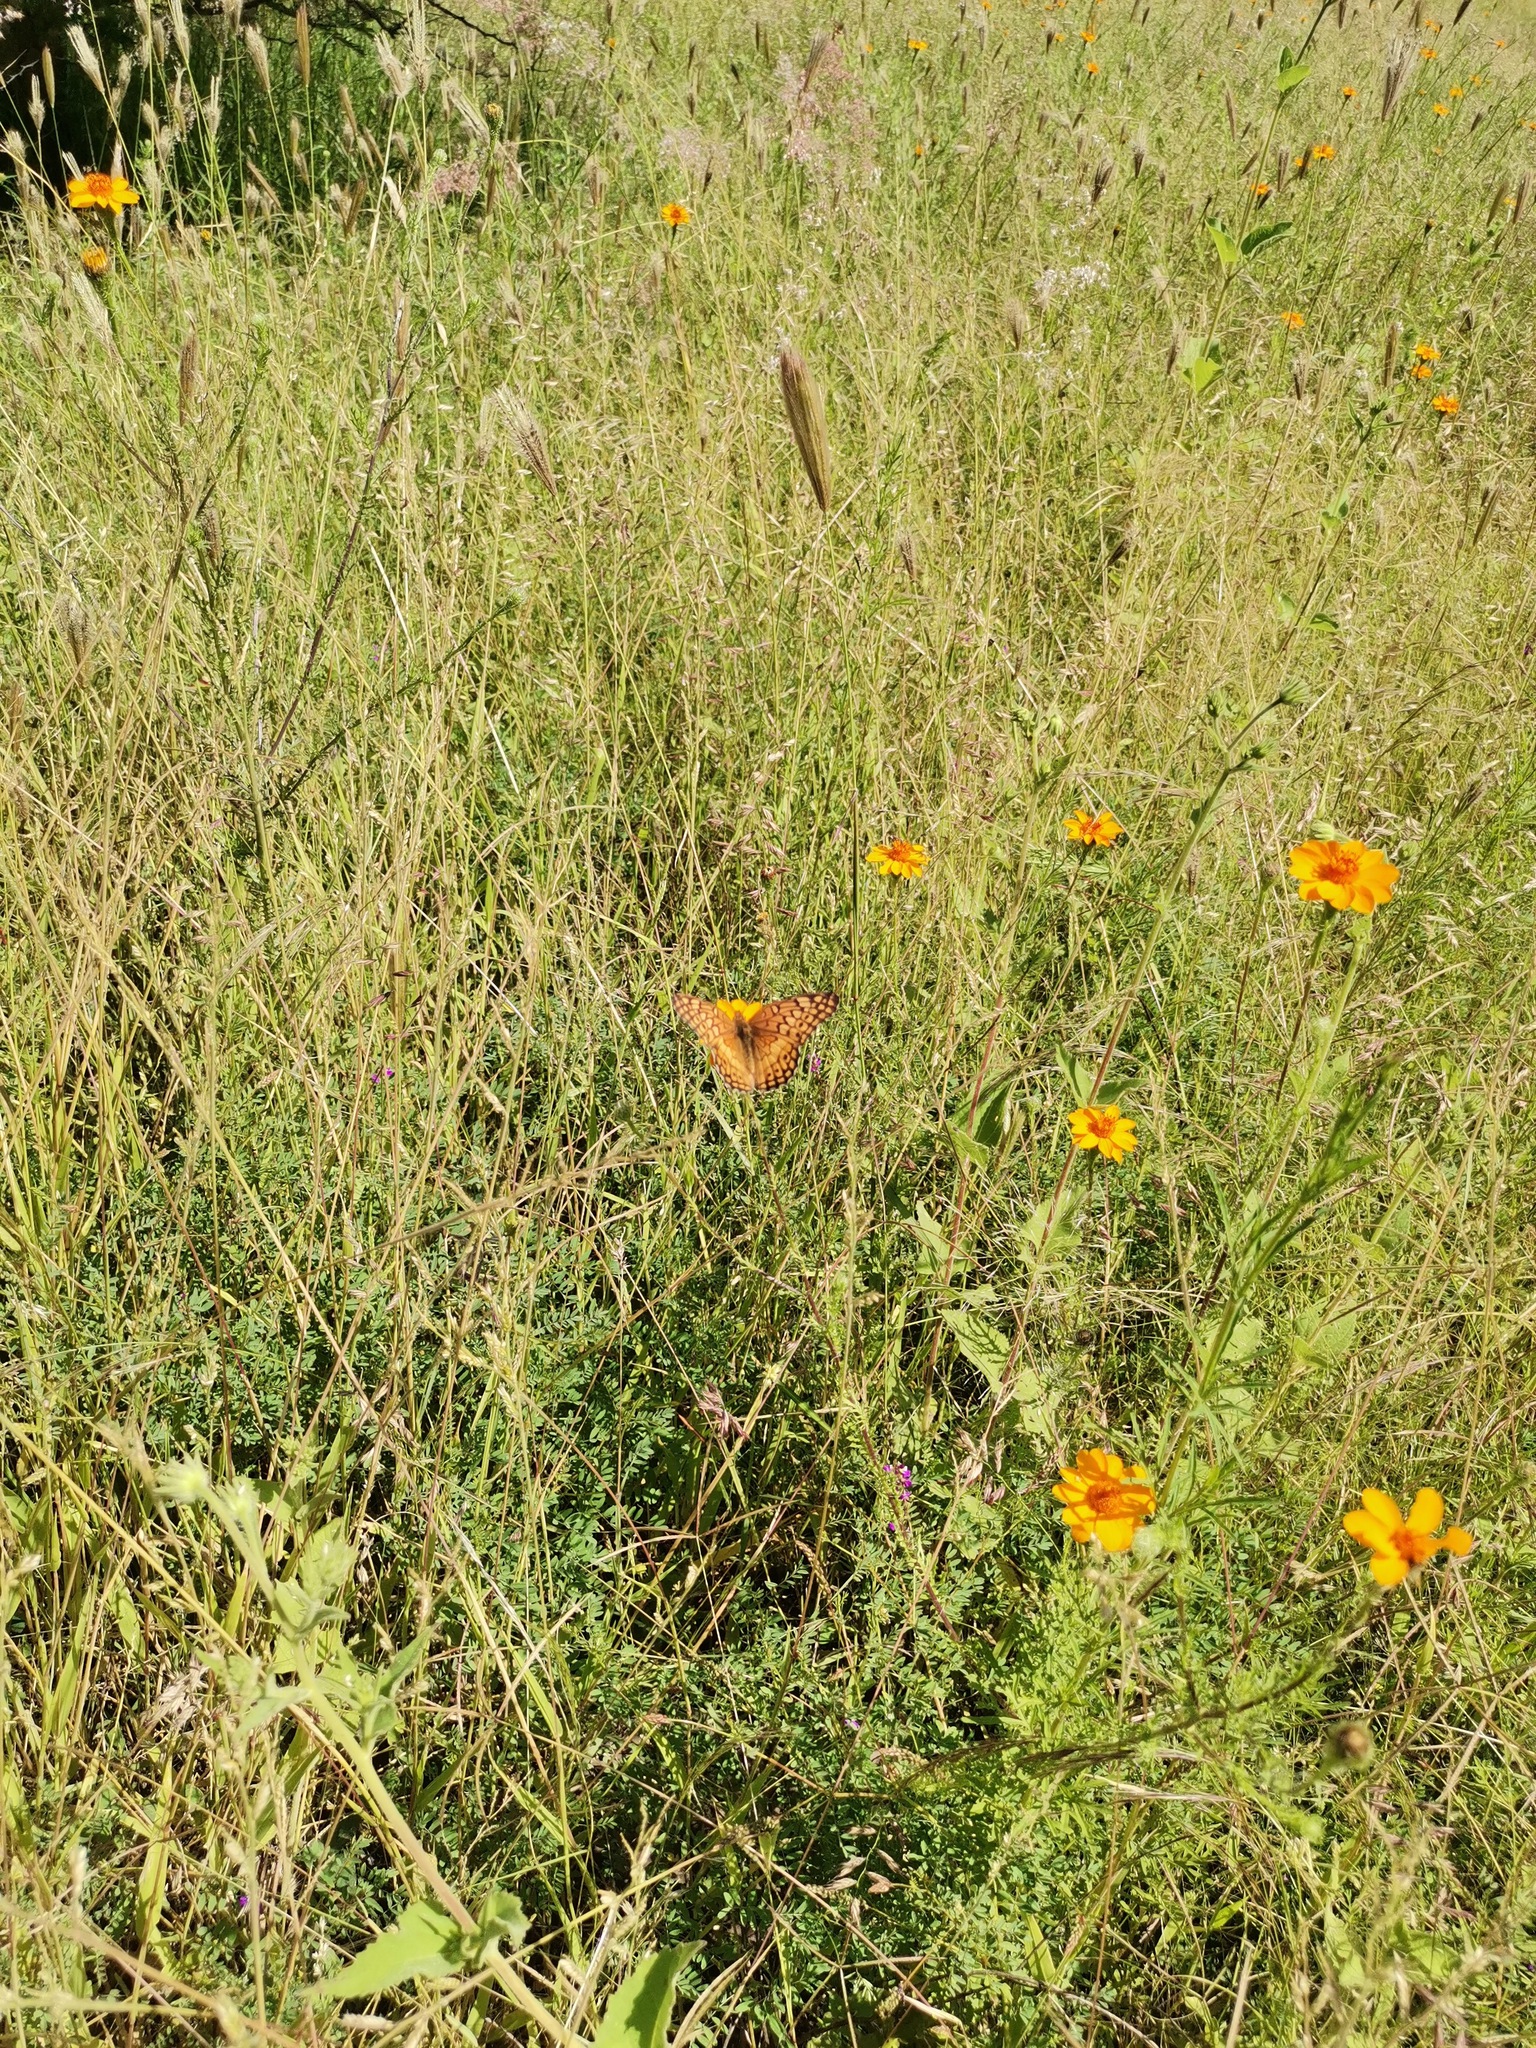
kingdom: Plantae
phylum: Tracheophyta
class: Magnoliopsida
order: Asterales
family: Asteraceae
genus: Adenophyllum
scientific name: Adenophyllum cancellatum
